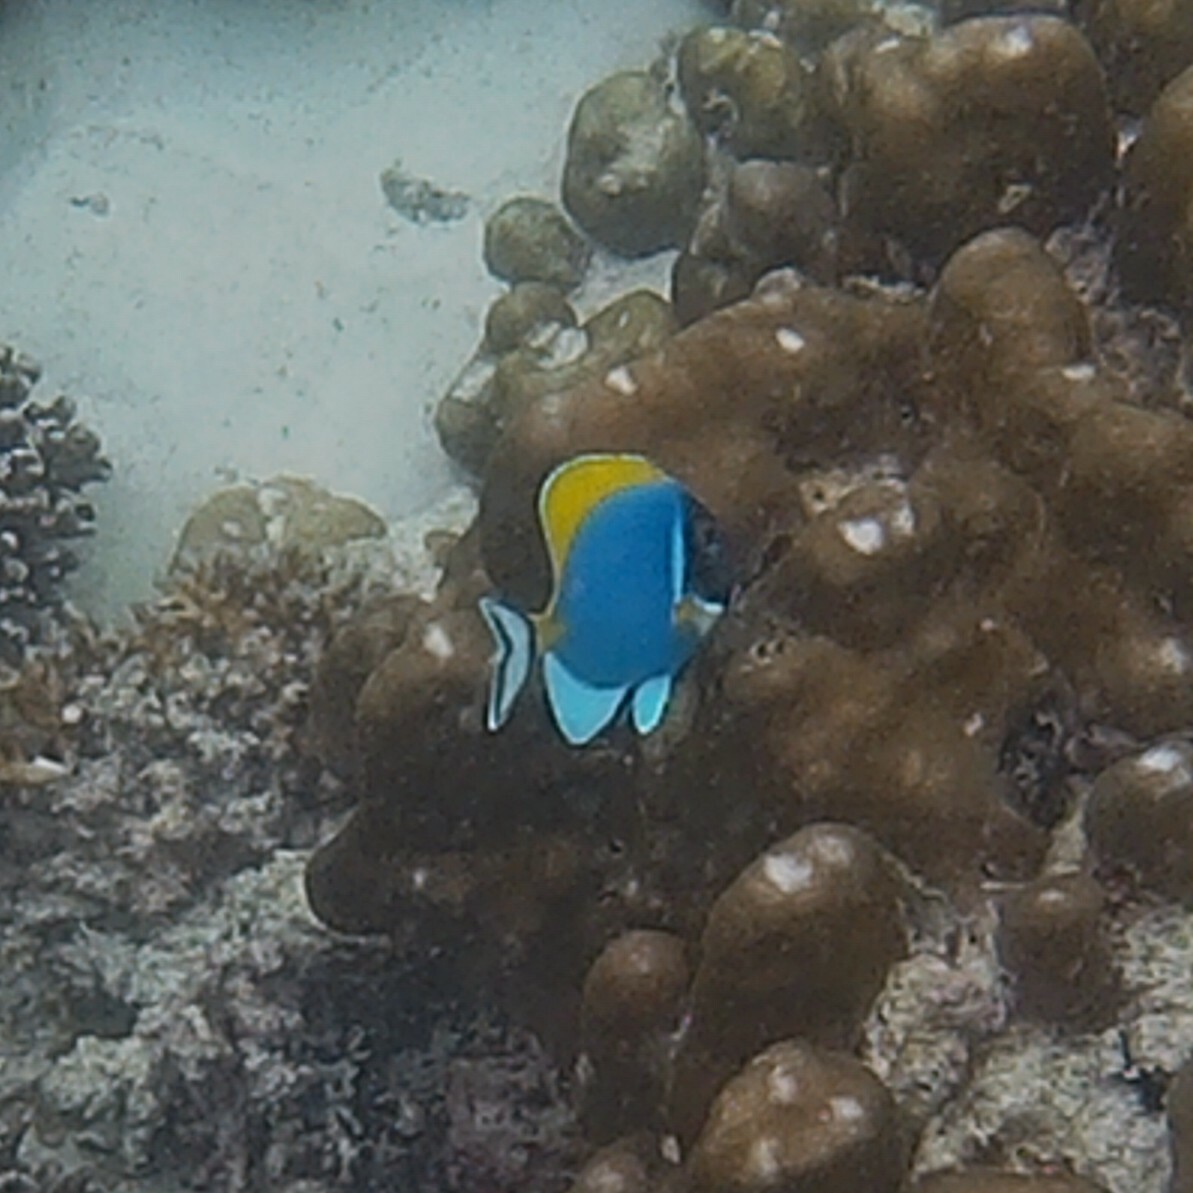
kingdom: Animalia
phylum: Chordata
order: Perciformes
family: Acanthuridae
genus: Acanthurus
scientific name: Acanthurus leucosternon
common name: Blue surgeonfish
